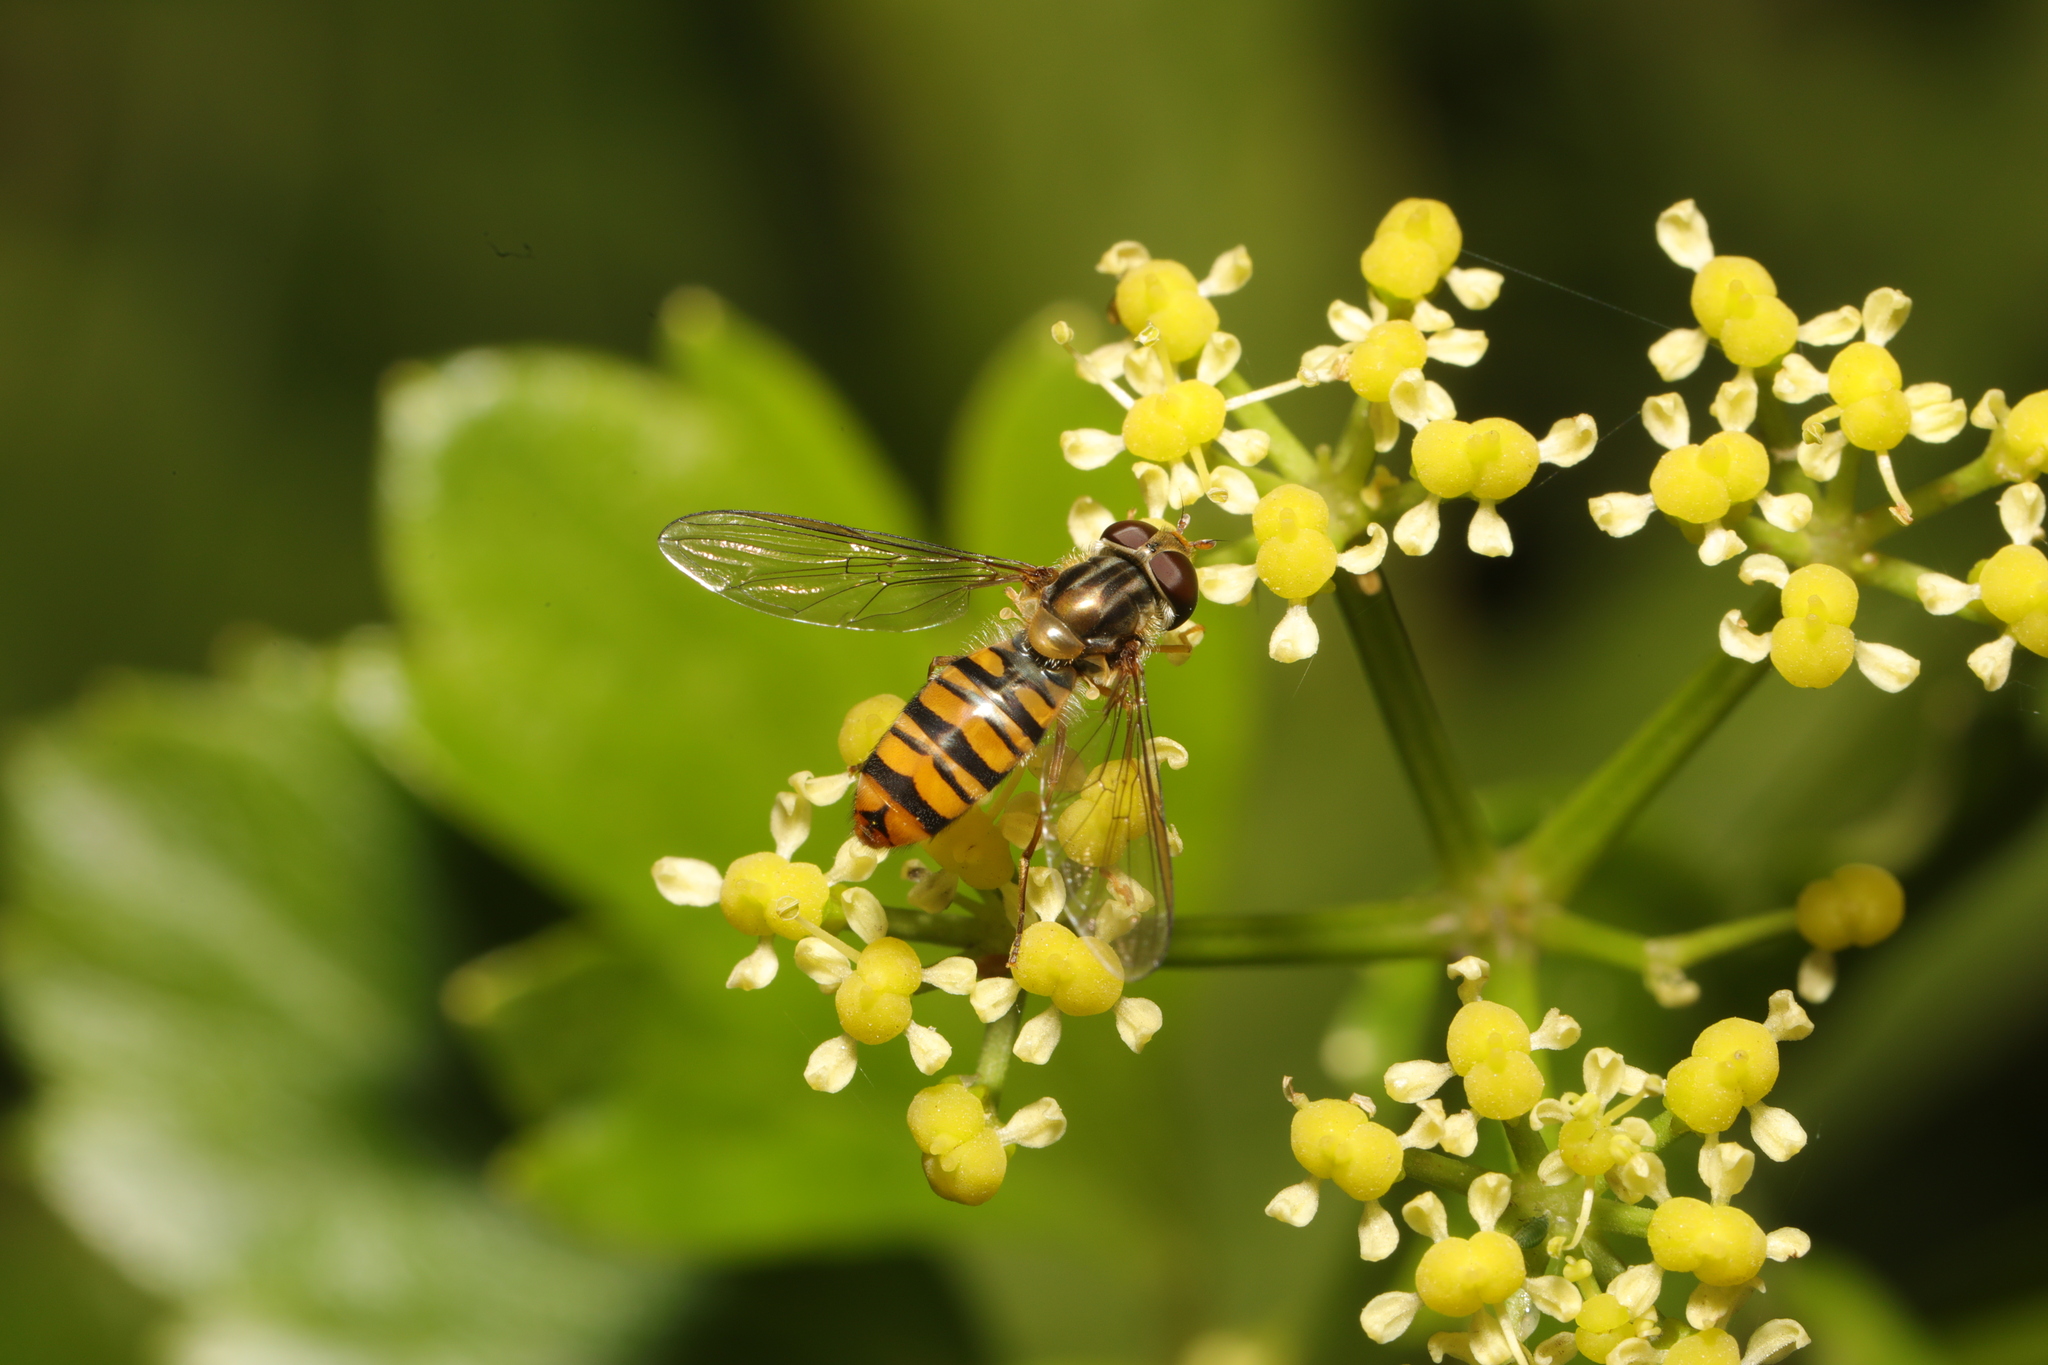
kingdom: Animalia
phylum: Arthropoda
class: Insecta
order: Diptera
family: Syrphidae
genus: Episyrphus
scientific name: Episyrphus balteatus
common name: Marmalade hoverfly
